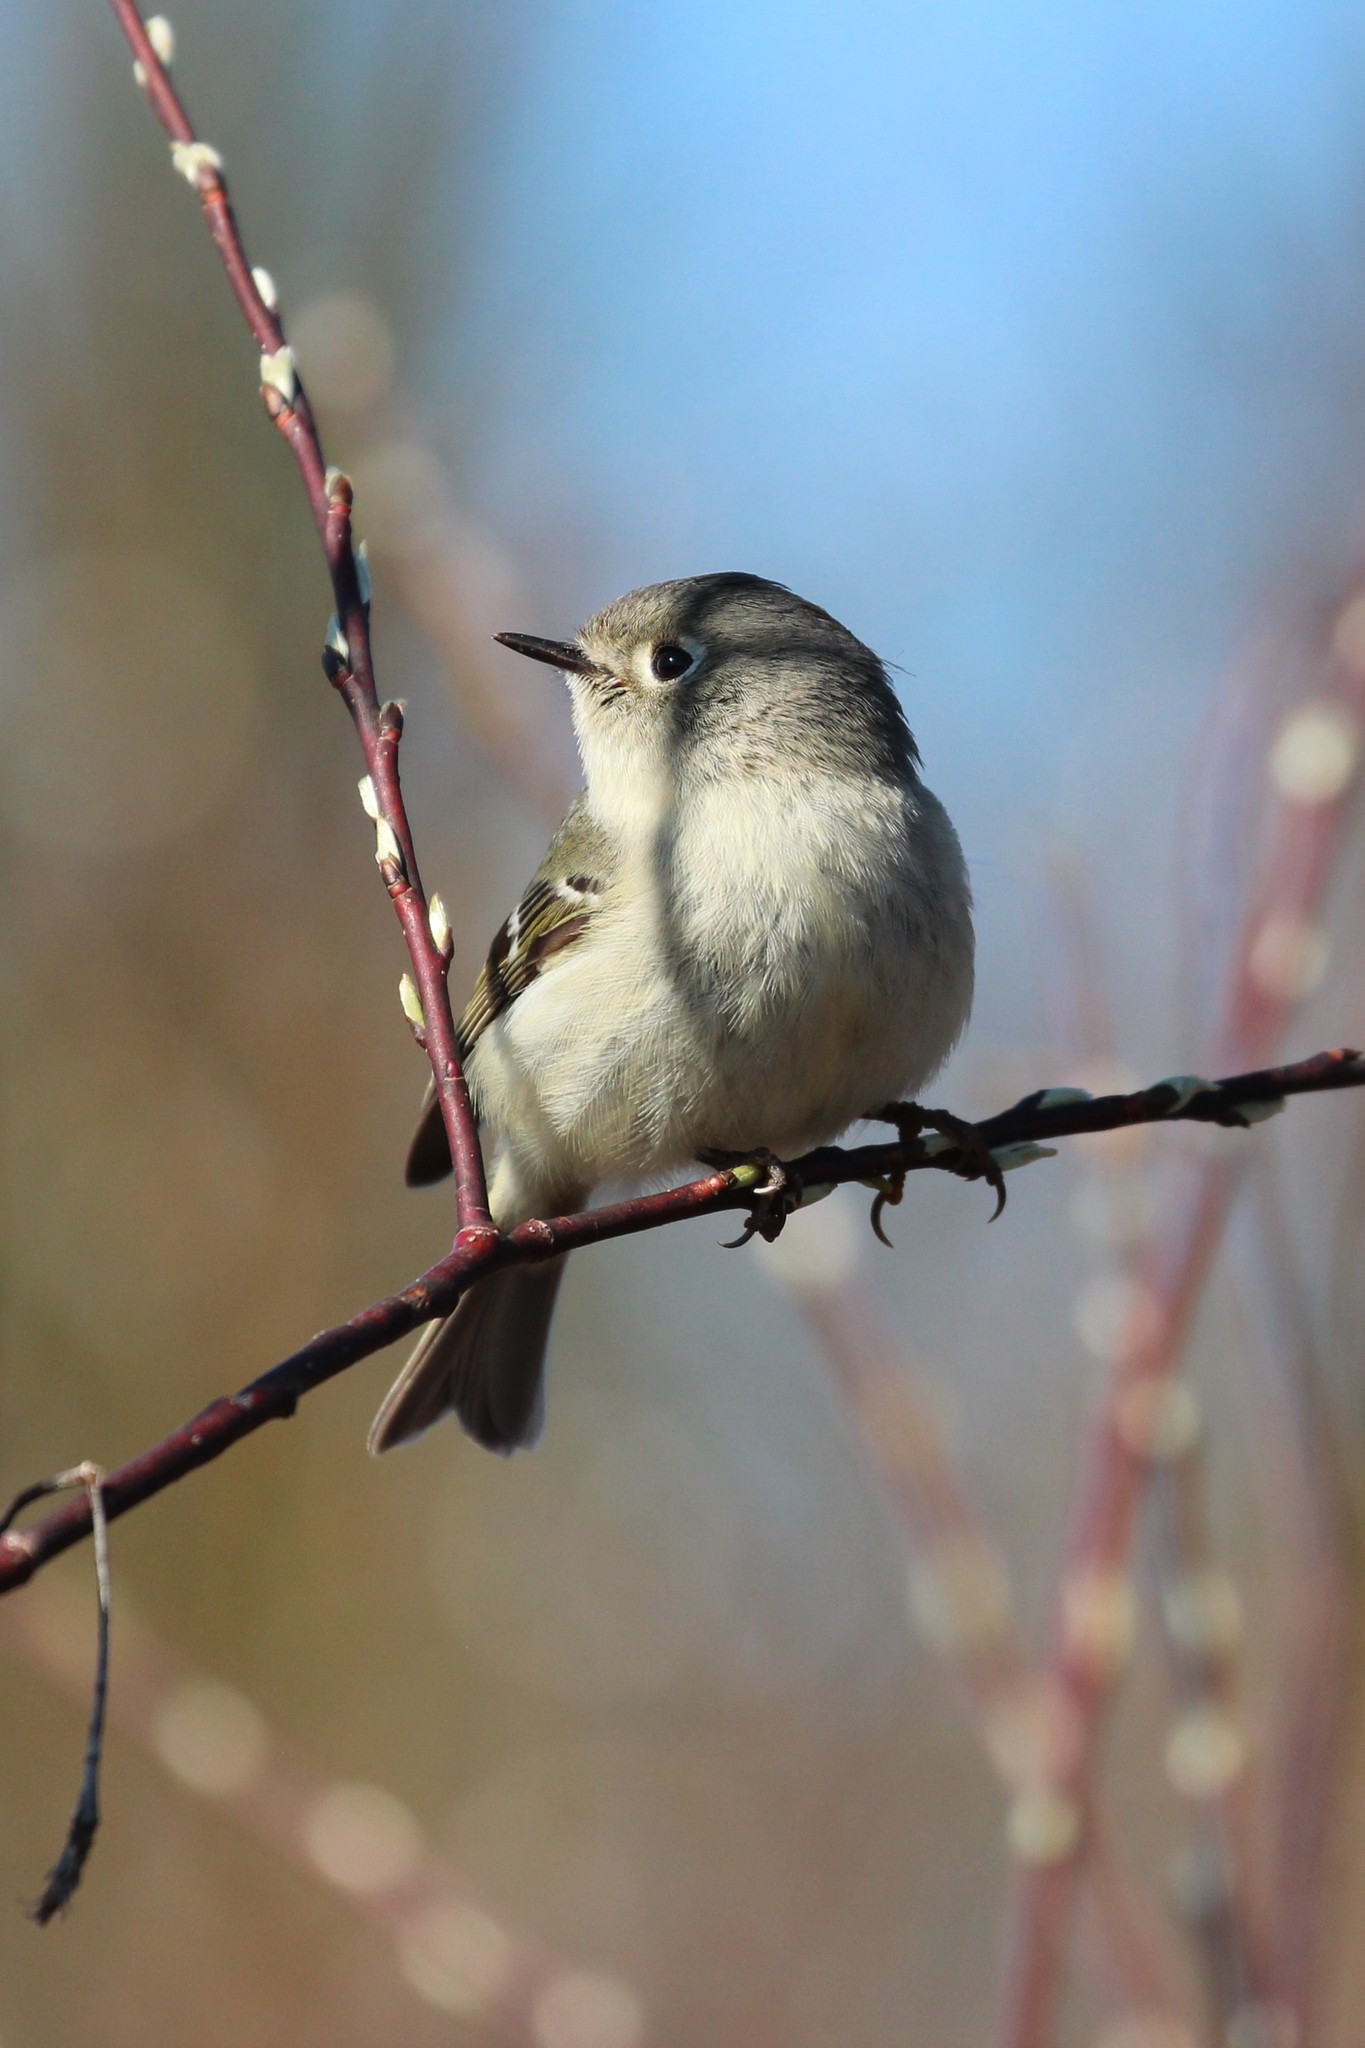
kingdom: Animalia
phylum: Chordata
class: Aves
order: Passeriformes
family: Regulidae
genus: Regulus
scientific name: Regulus calendula
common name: Ruby-crowned kinglet
